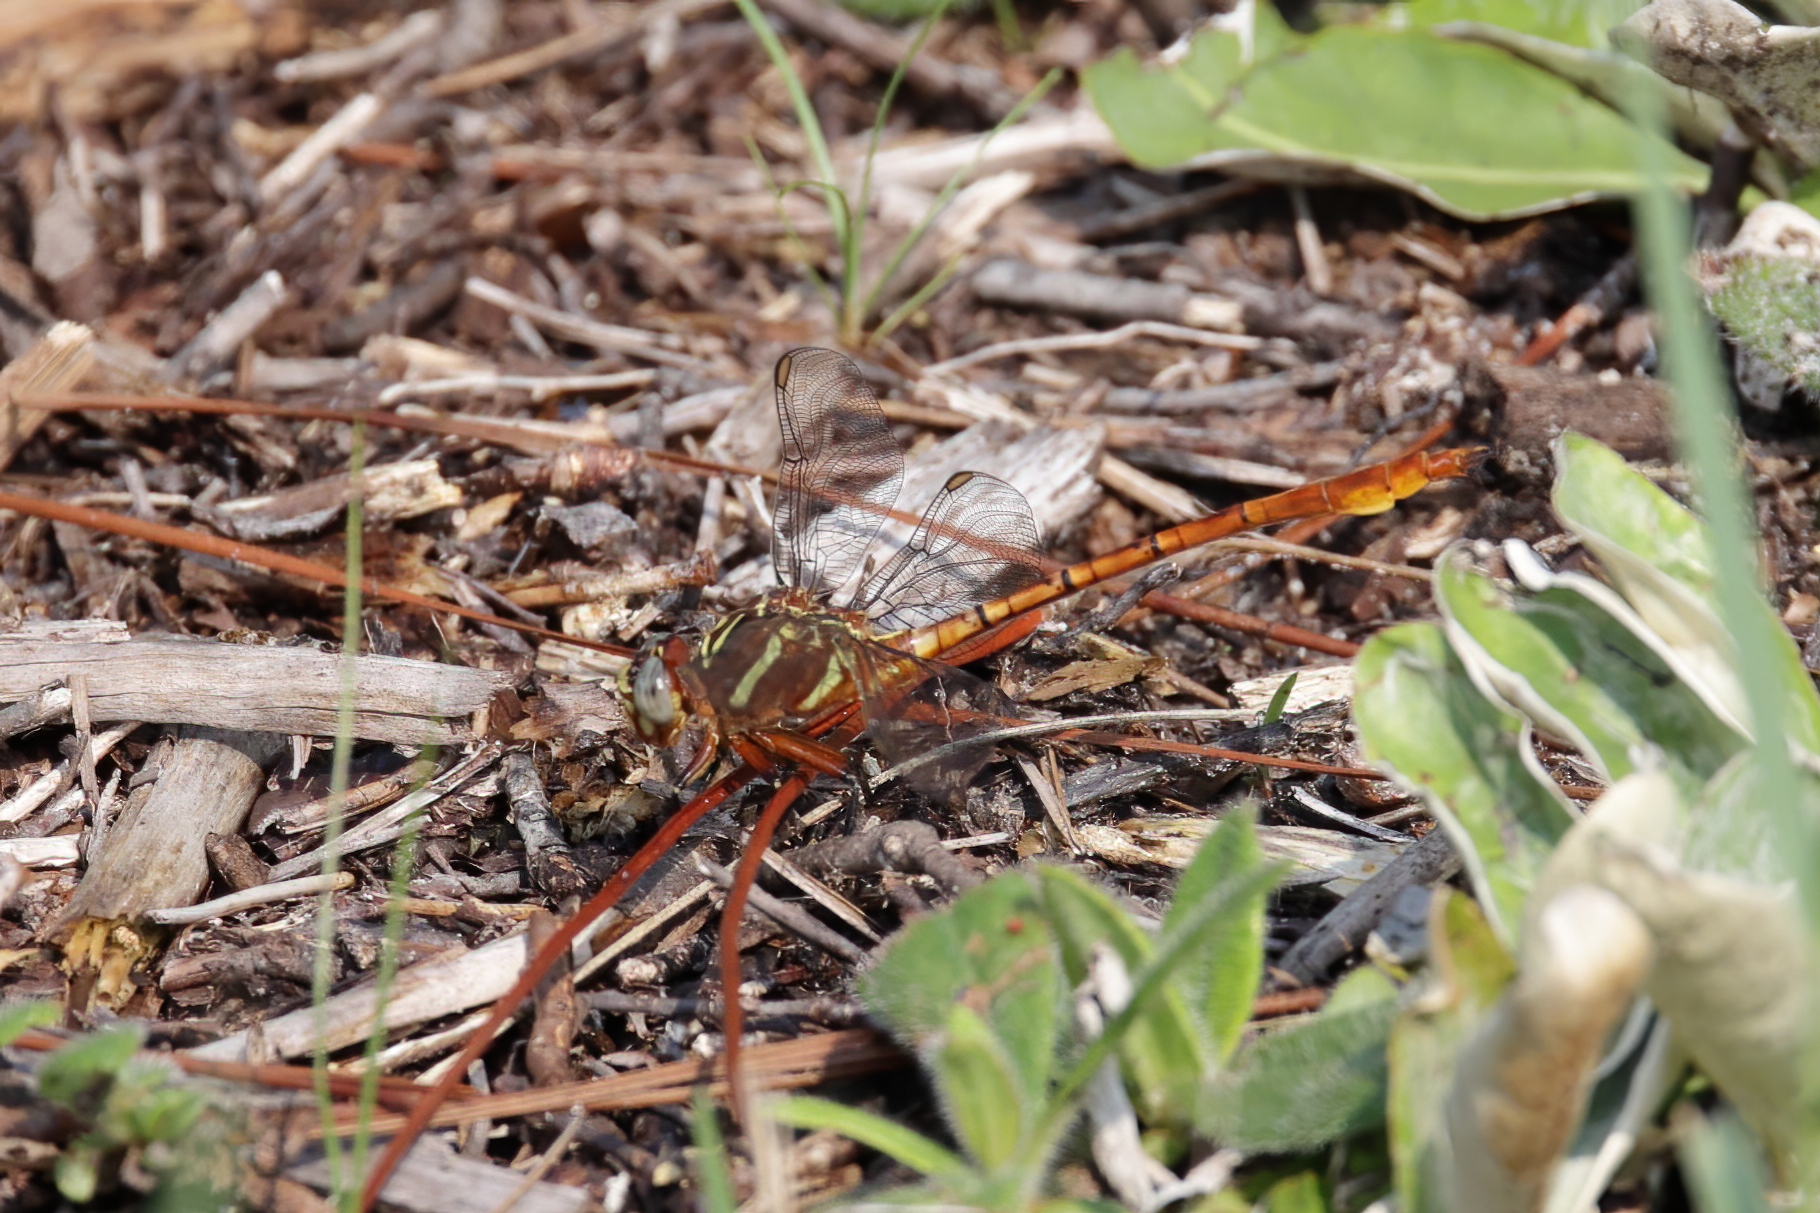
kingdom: Animalia
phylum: Arthropoda
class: Insecta
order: Odonata
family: Gomphidae
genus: Aphylla
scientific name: Aphylla williamsoni
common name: Two-striped forceptail
